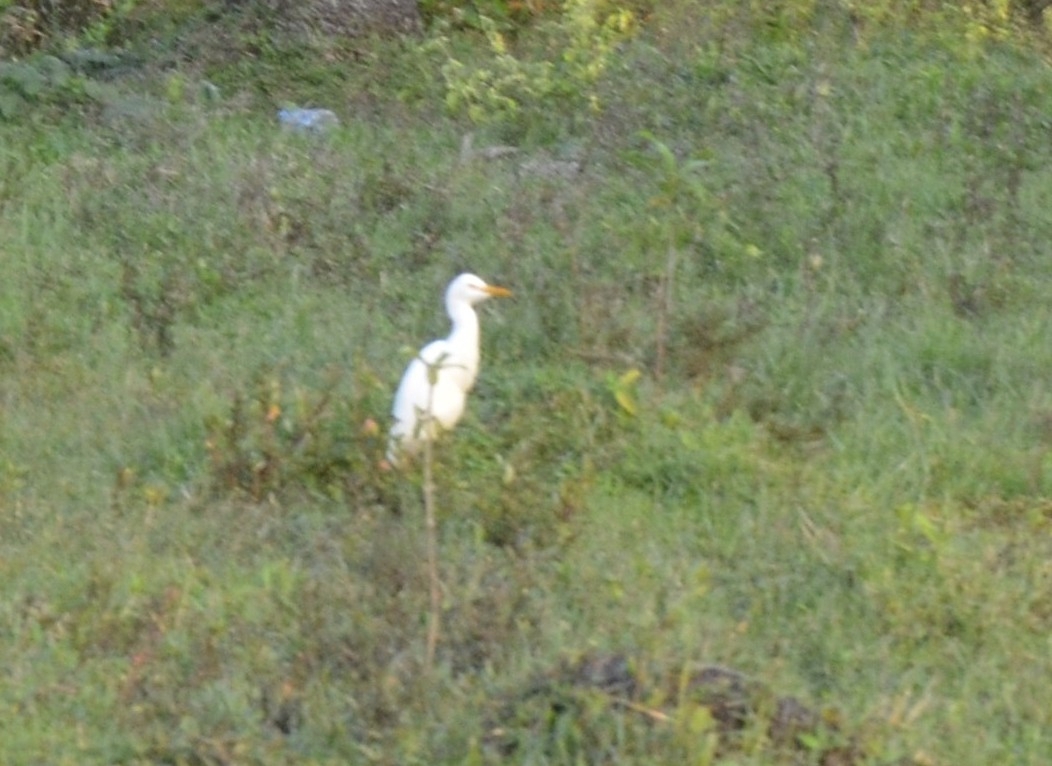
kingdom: Animalia
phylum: Chordata
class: Aves
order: Pelecaniformes
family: Ardeidae
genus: Bubulcus
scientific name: Bubulcus coromandus
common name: Eastern cattle egret
